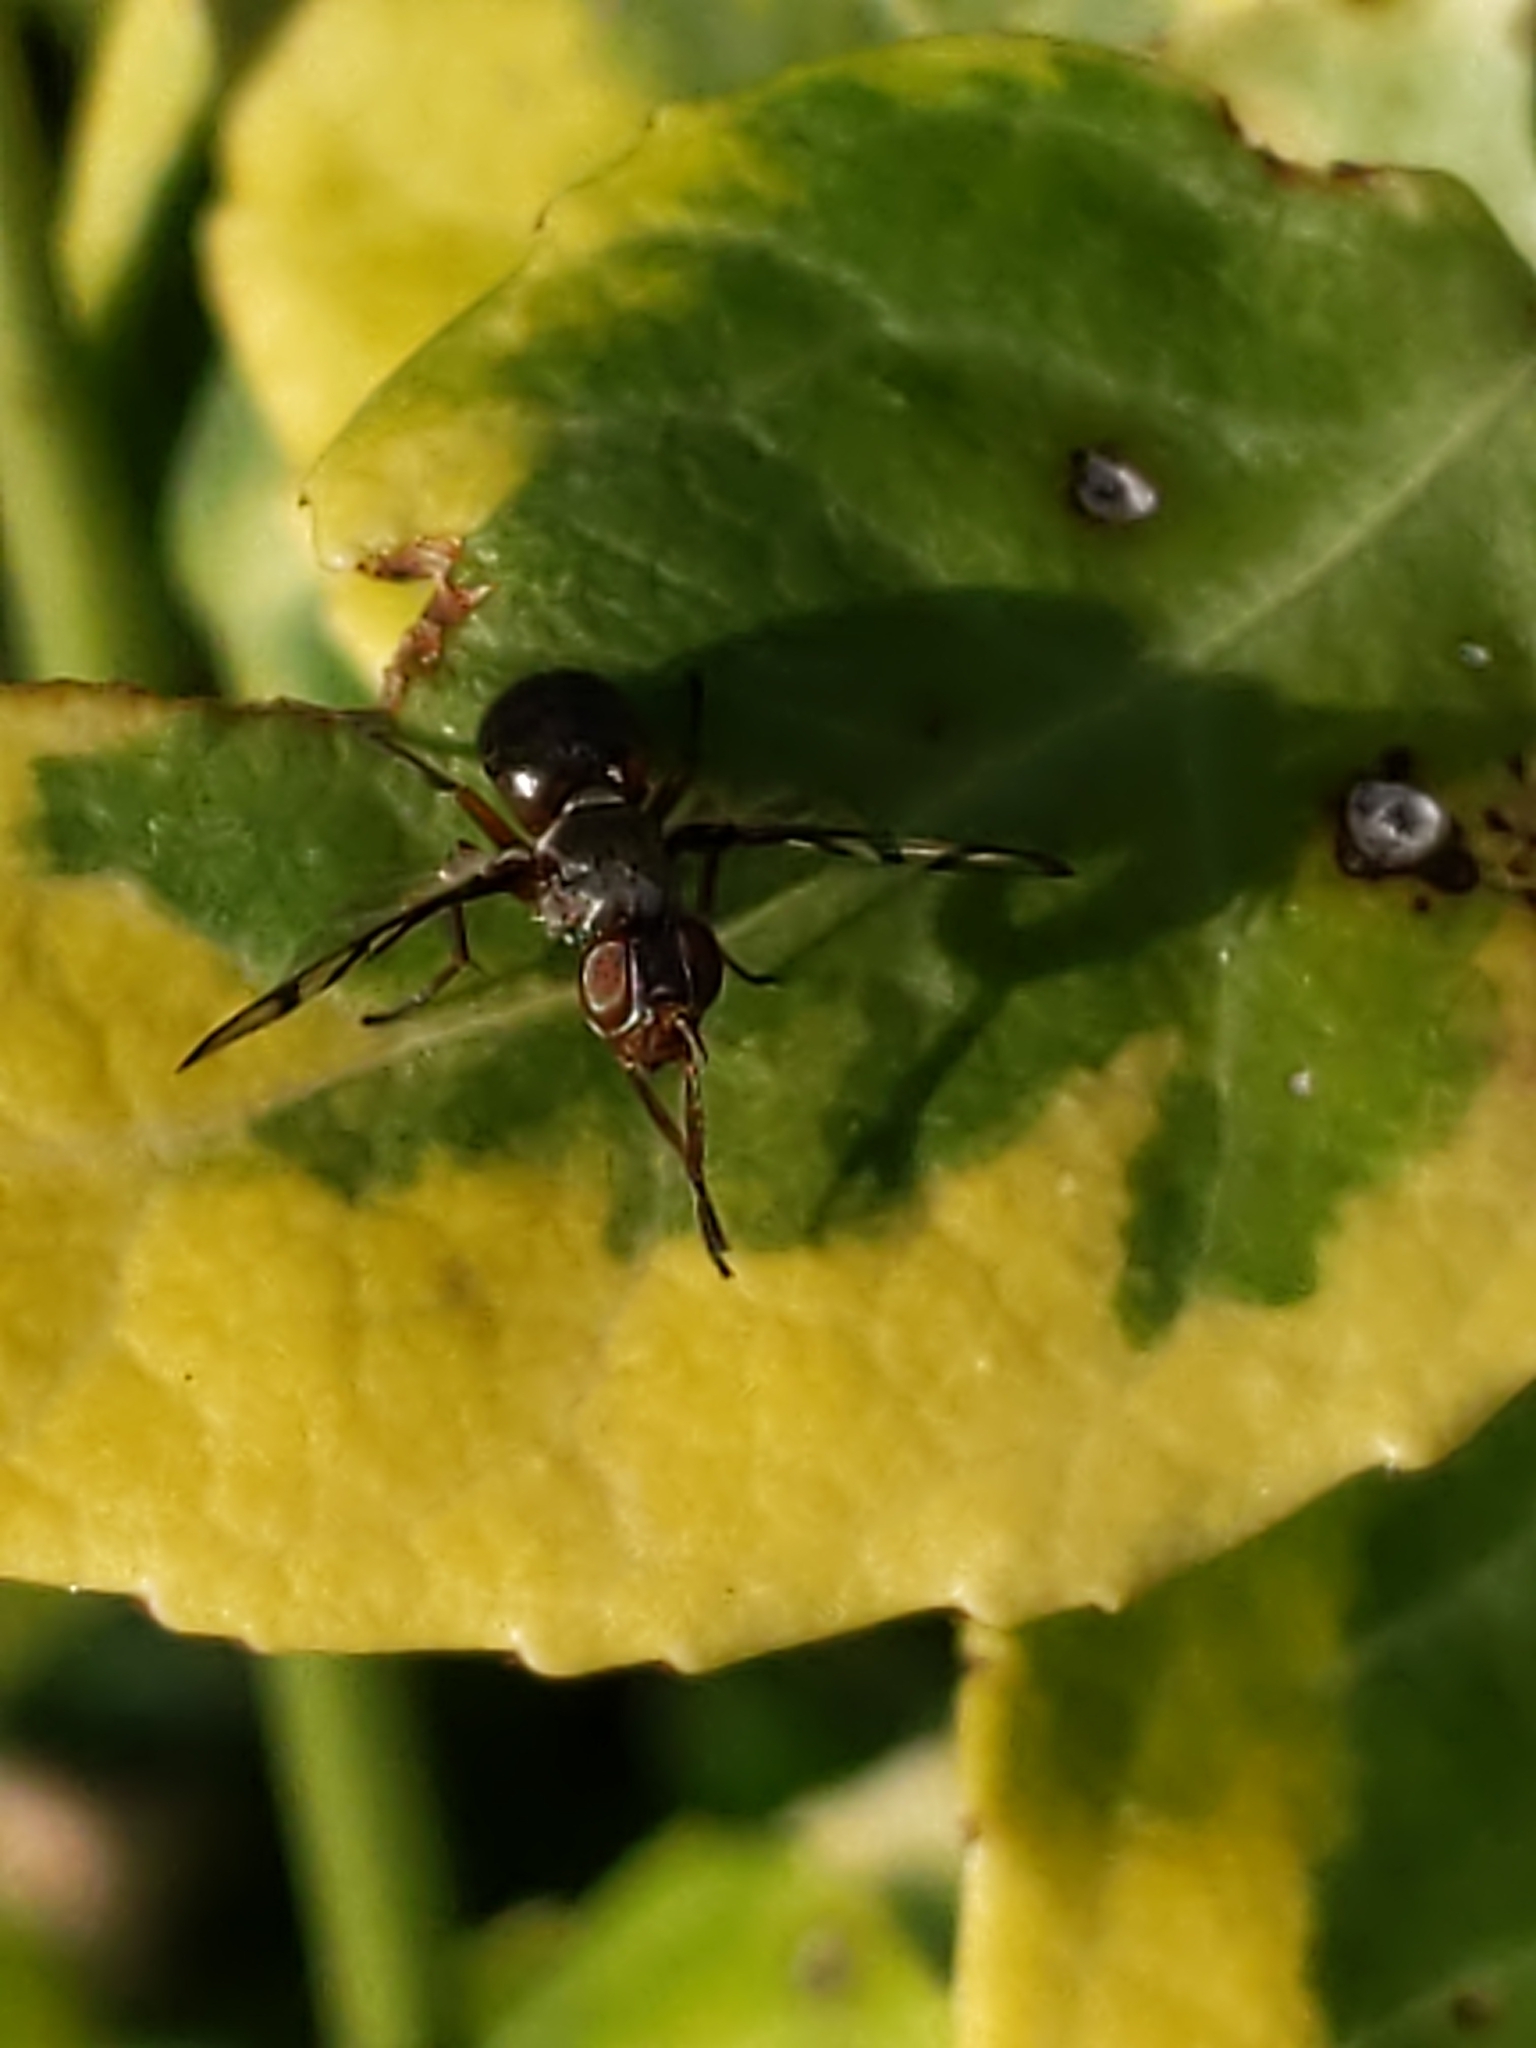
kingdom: Animalia
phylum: Arthropoda
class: Insecta
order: Diptera
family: Platystomatidae
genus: Rivellia
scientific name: Rivellia
